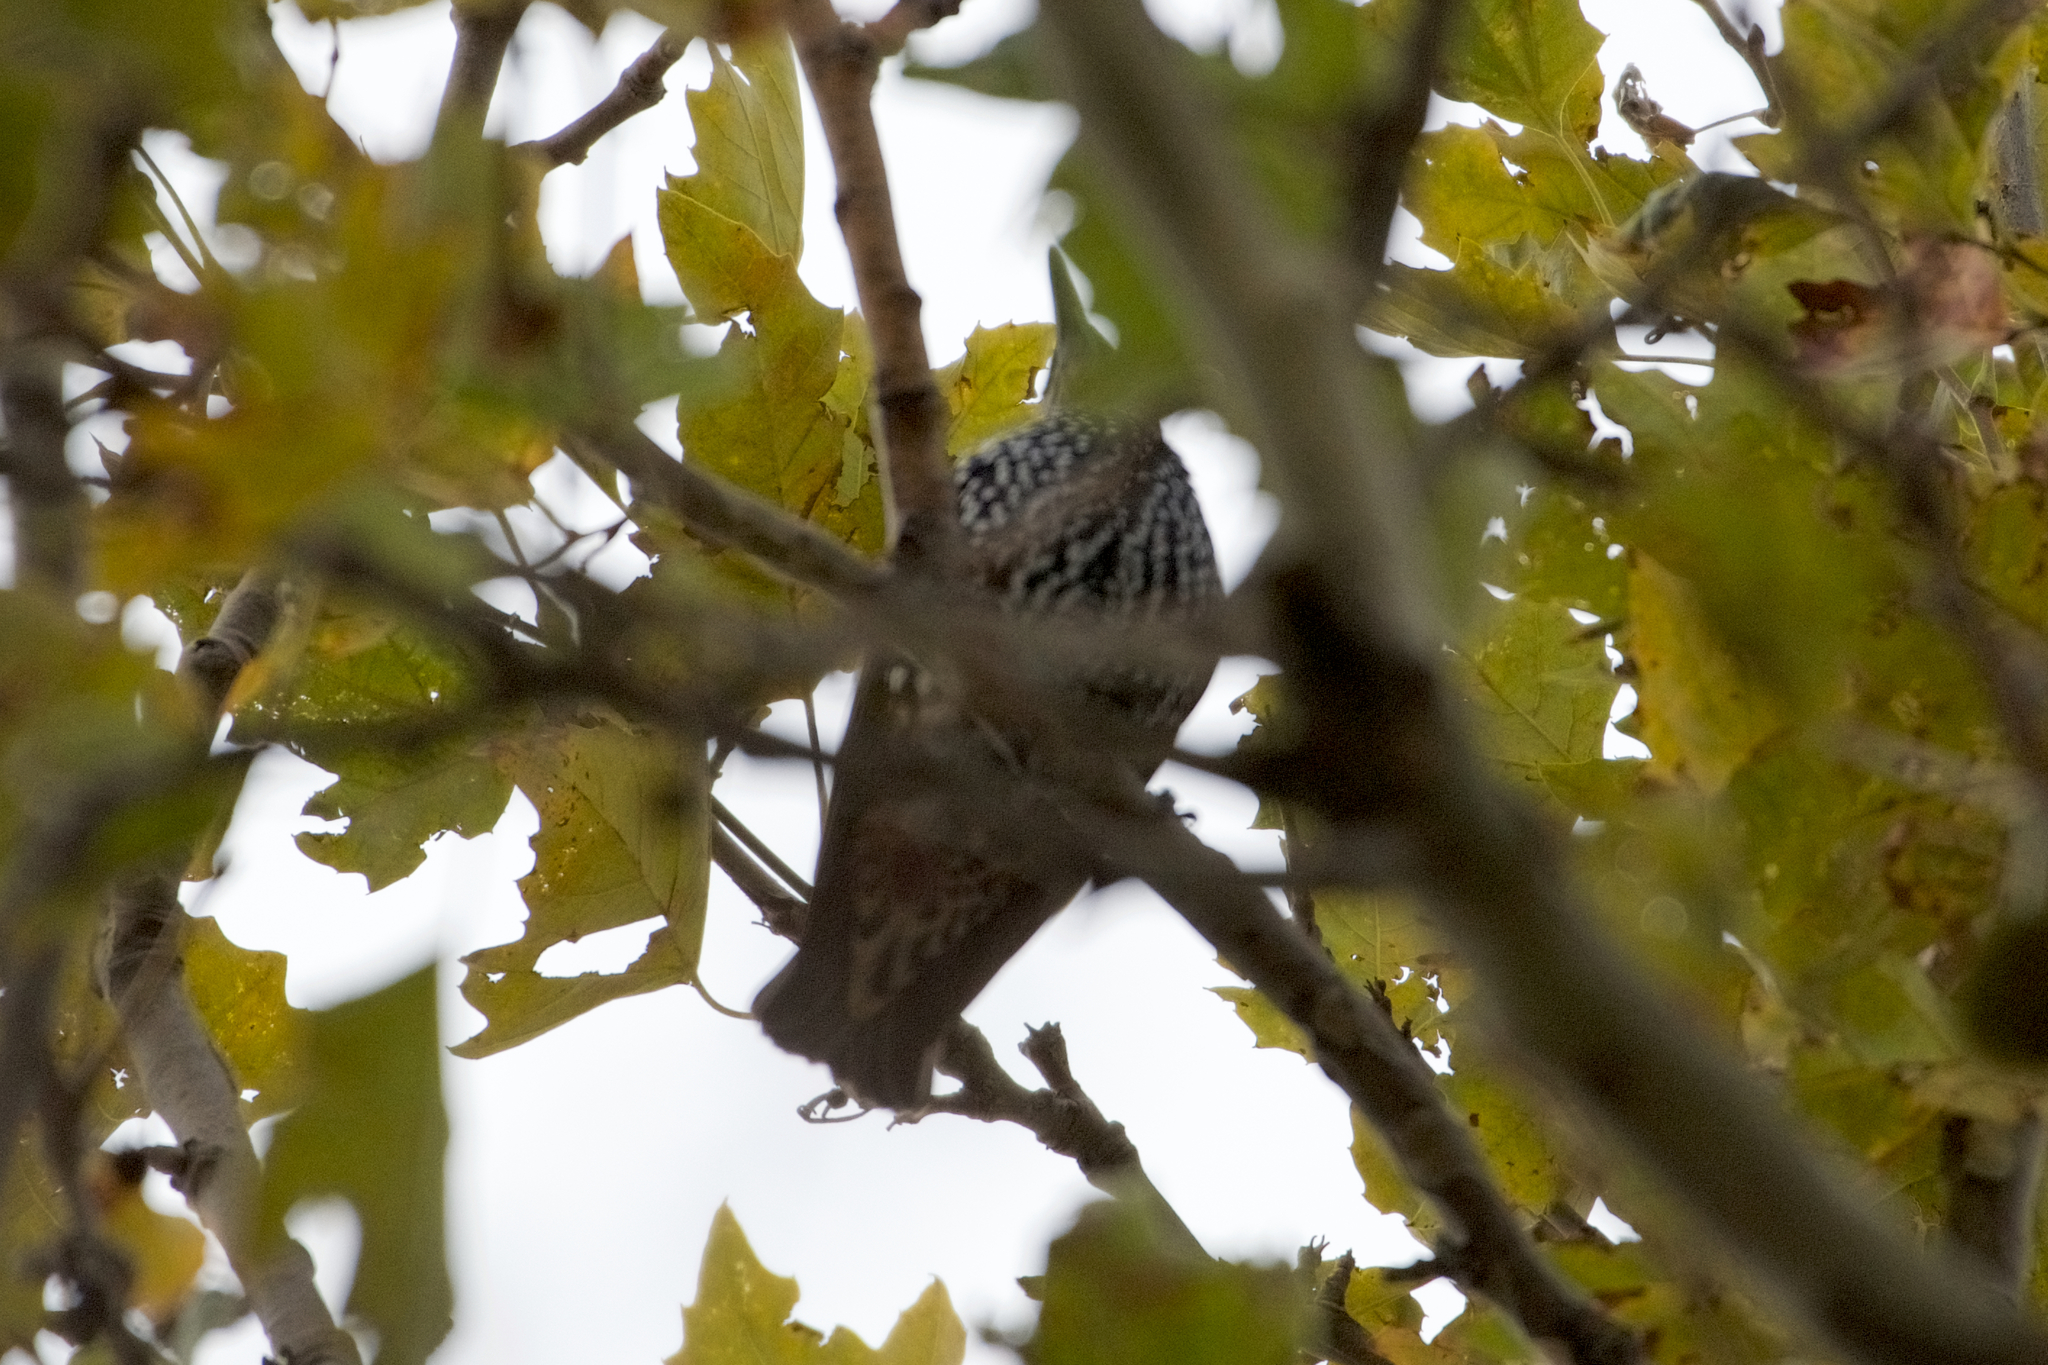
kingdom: Animalia
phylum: Chordata
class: Aves
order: Passeriformes
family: Sturnidae
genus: Sturnus
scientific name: Sturnus vulgaris
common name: Common starling
